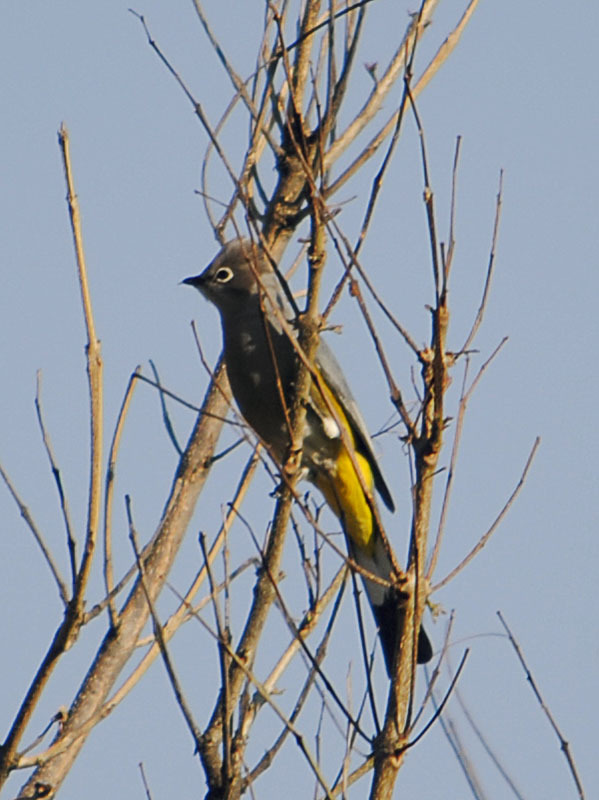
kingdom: Animalia
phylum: Chordata
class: Aves
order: Passeriformes
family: Ptilogonatidae
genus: Ptilogonys
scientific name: Ptilogonys cinereus
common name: Gray silky-flycatcher
